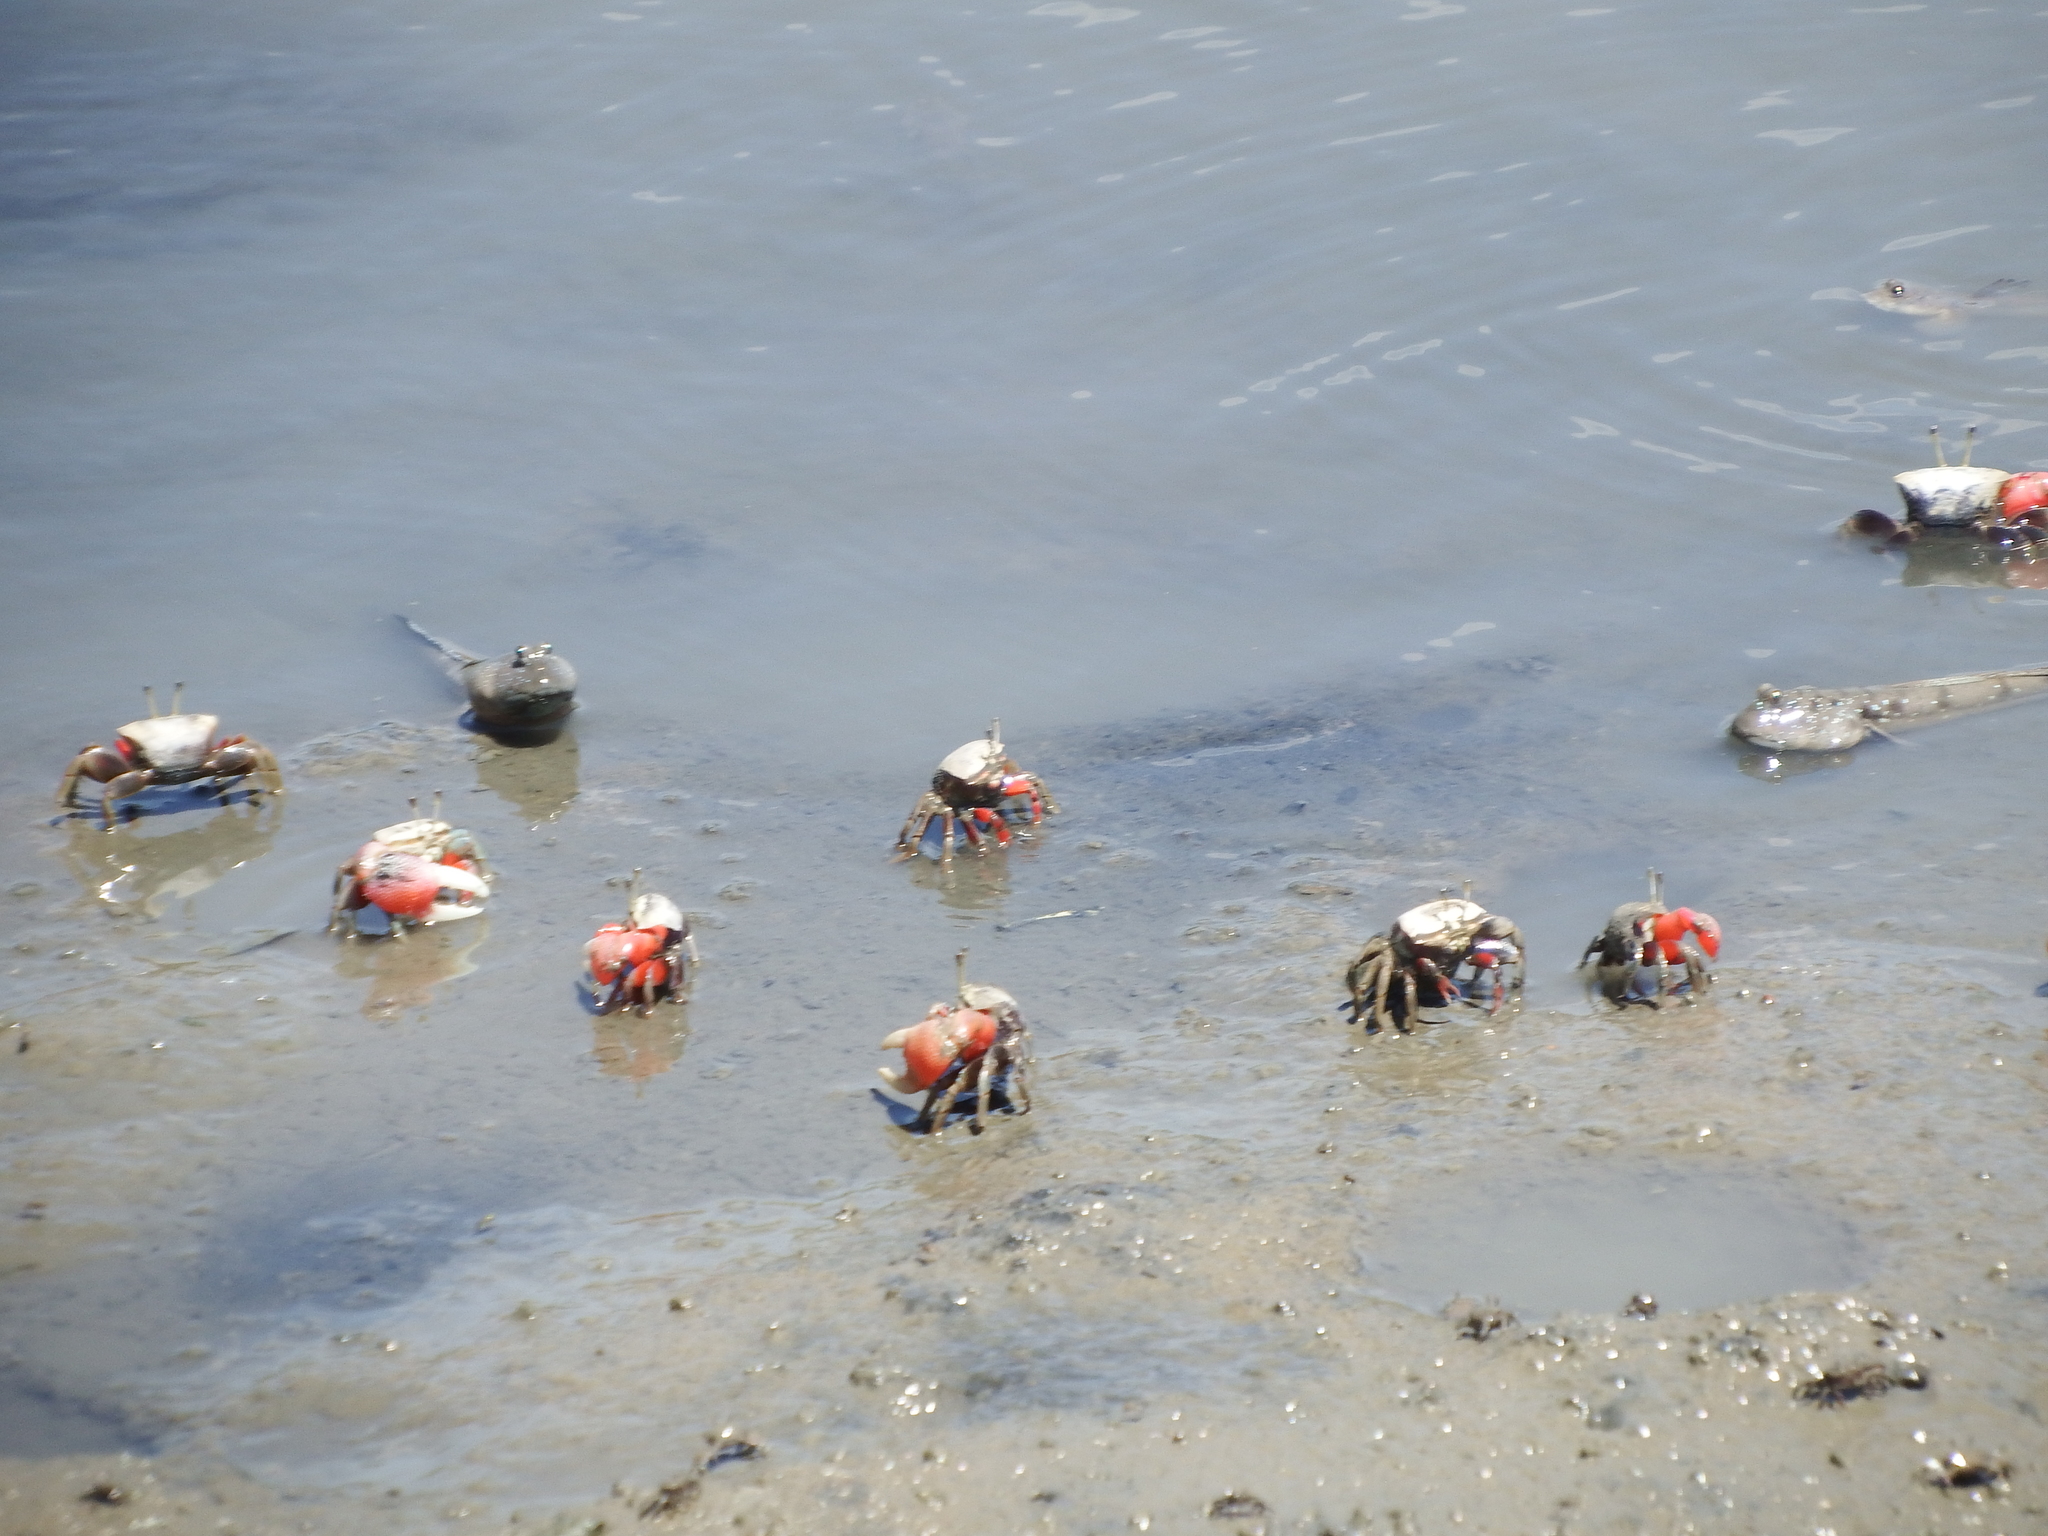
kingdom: Animalia
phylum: Arthropoda
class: Malacostraca
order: Decapoda
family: Ocypodidae
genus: Tubuca
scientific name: Tubuca arcuata
